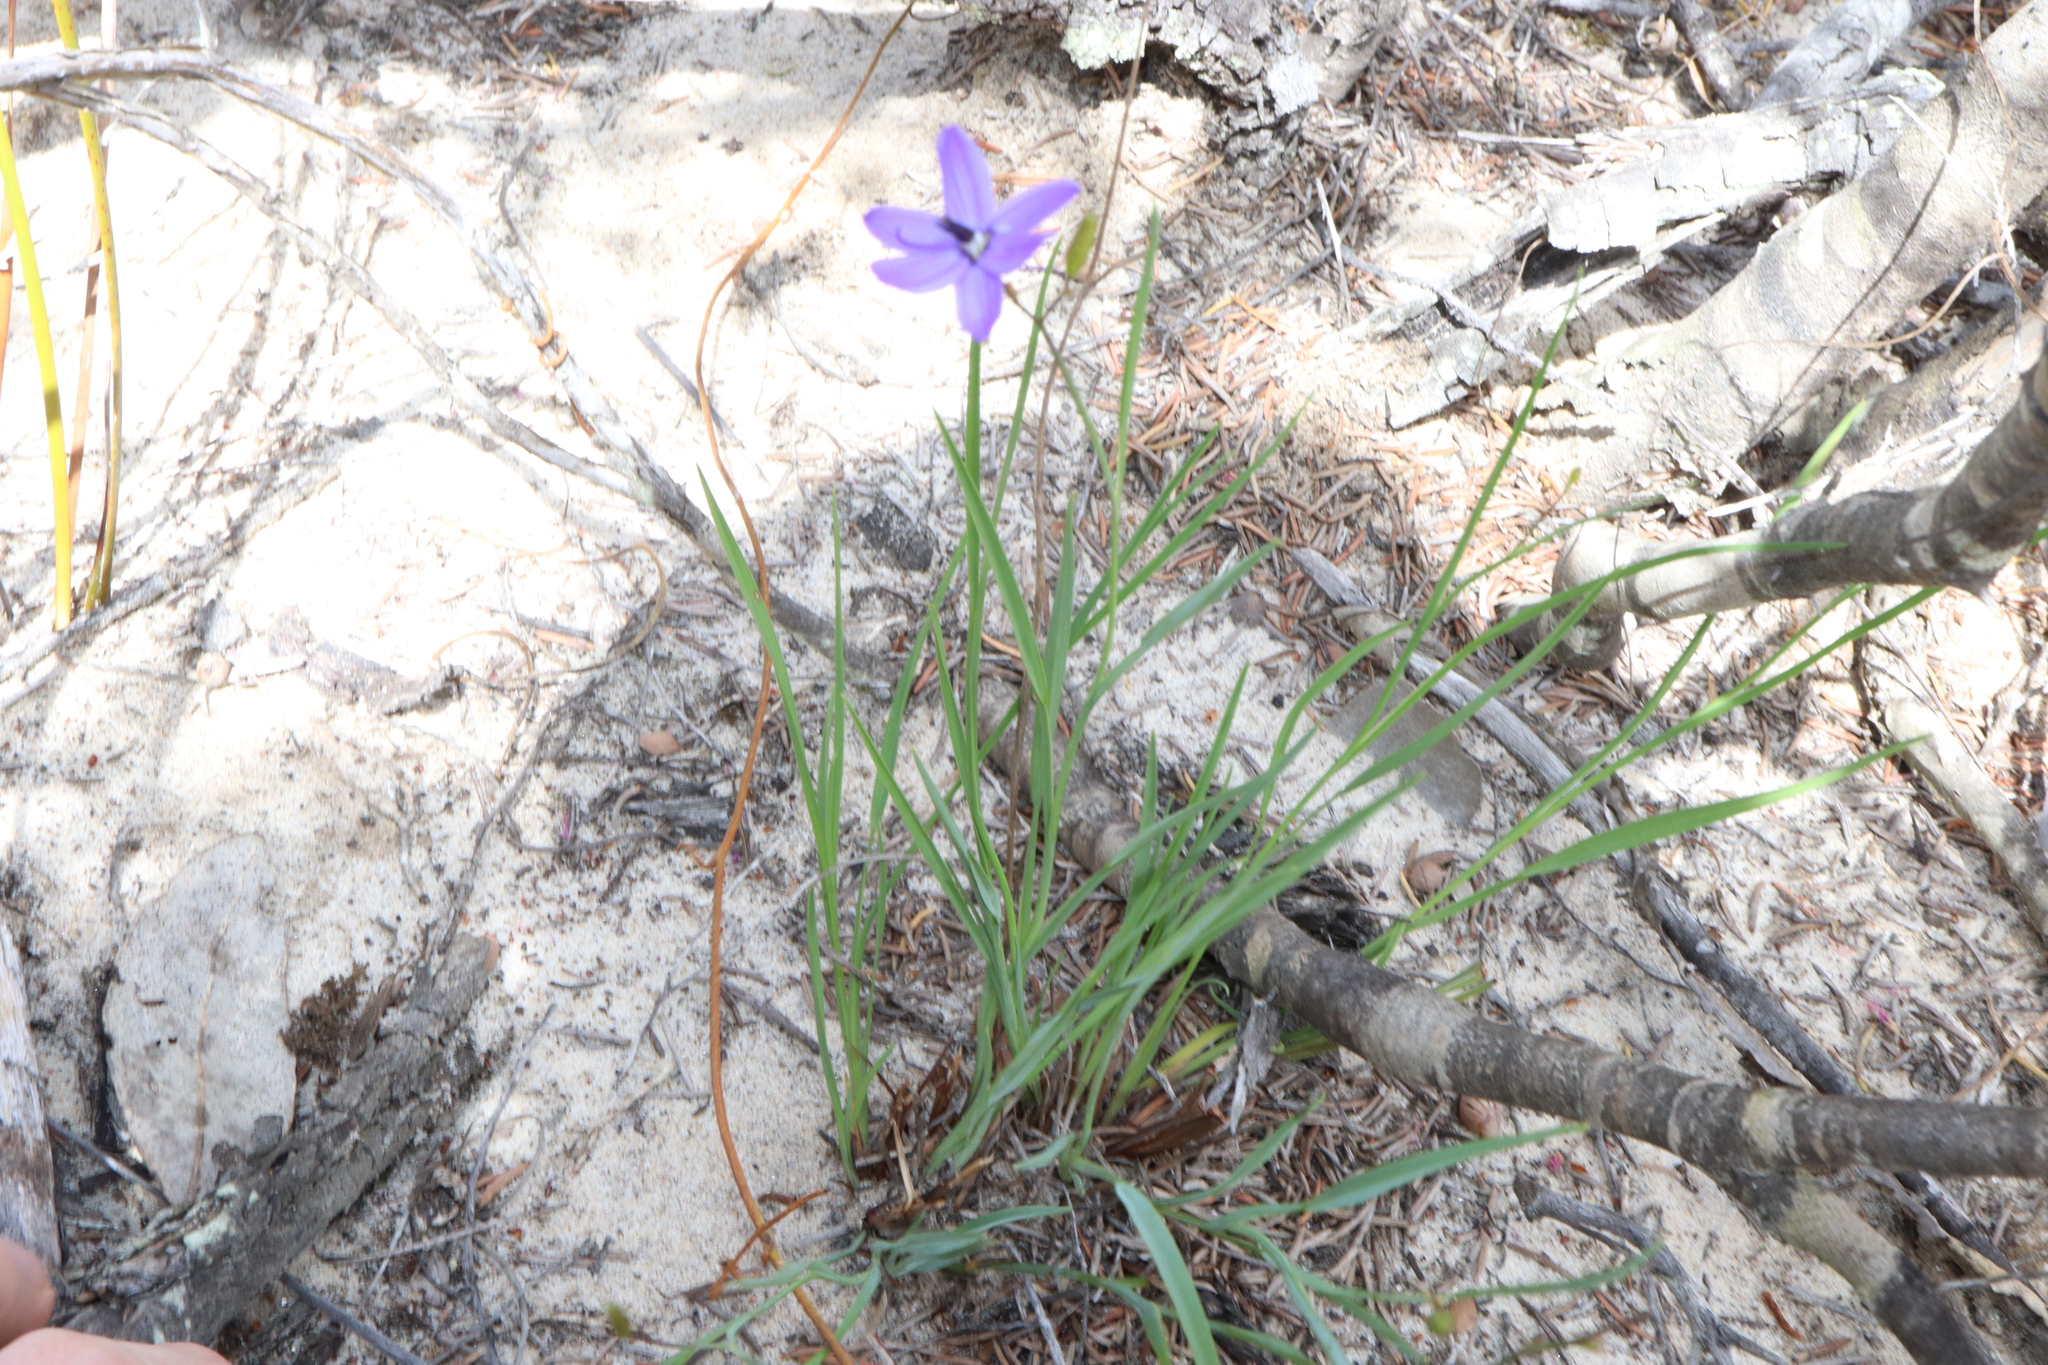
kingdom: Plantae
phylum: Tracheophyta
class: Liliopsida
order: Asparagales
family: Asphodelaceae
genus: Agrostocrinum
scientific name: Agrostocrinum scabrum
